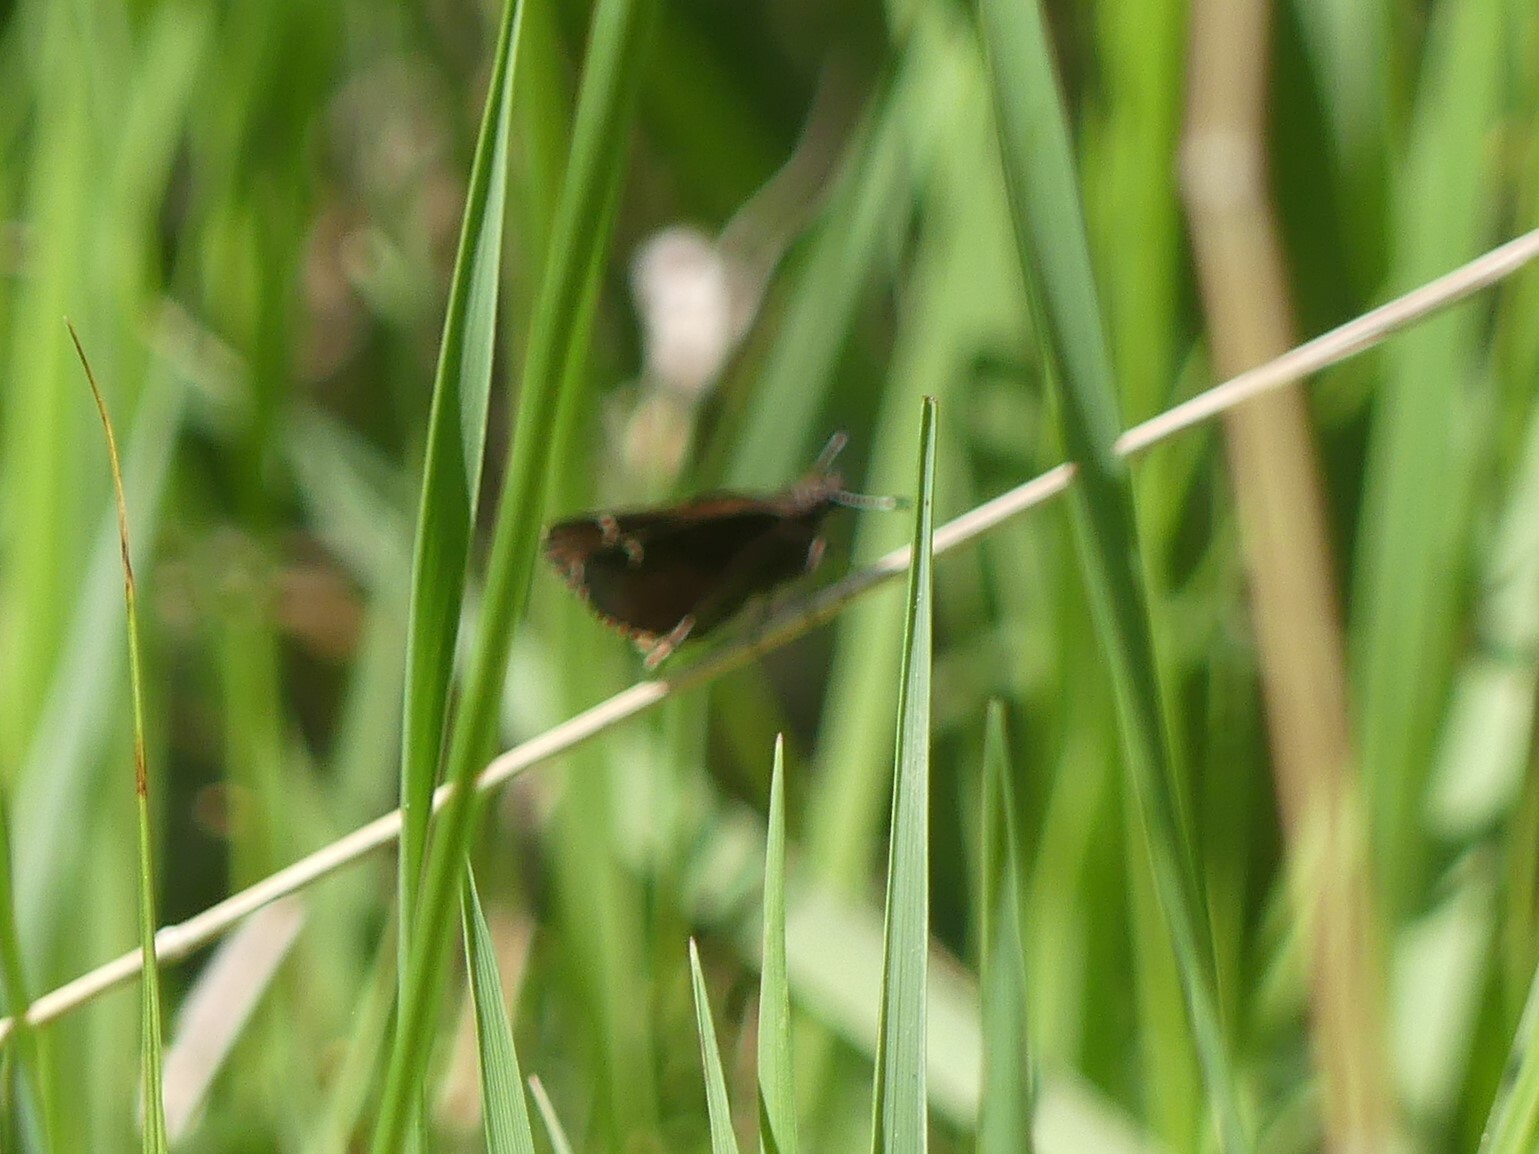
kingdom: Animalia
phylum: Arthropoda
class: Insecta
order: Lepidoptera
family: Hesperiidae
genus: Mastor
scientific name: Mastor vialis
